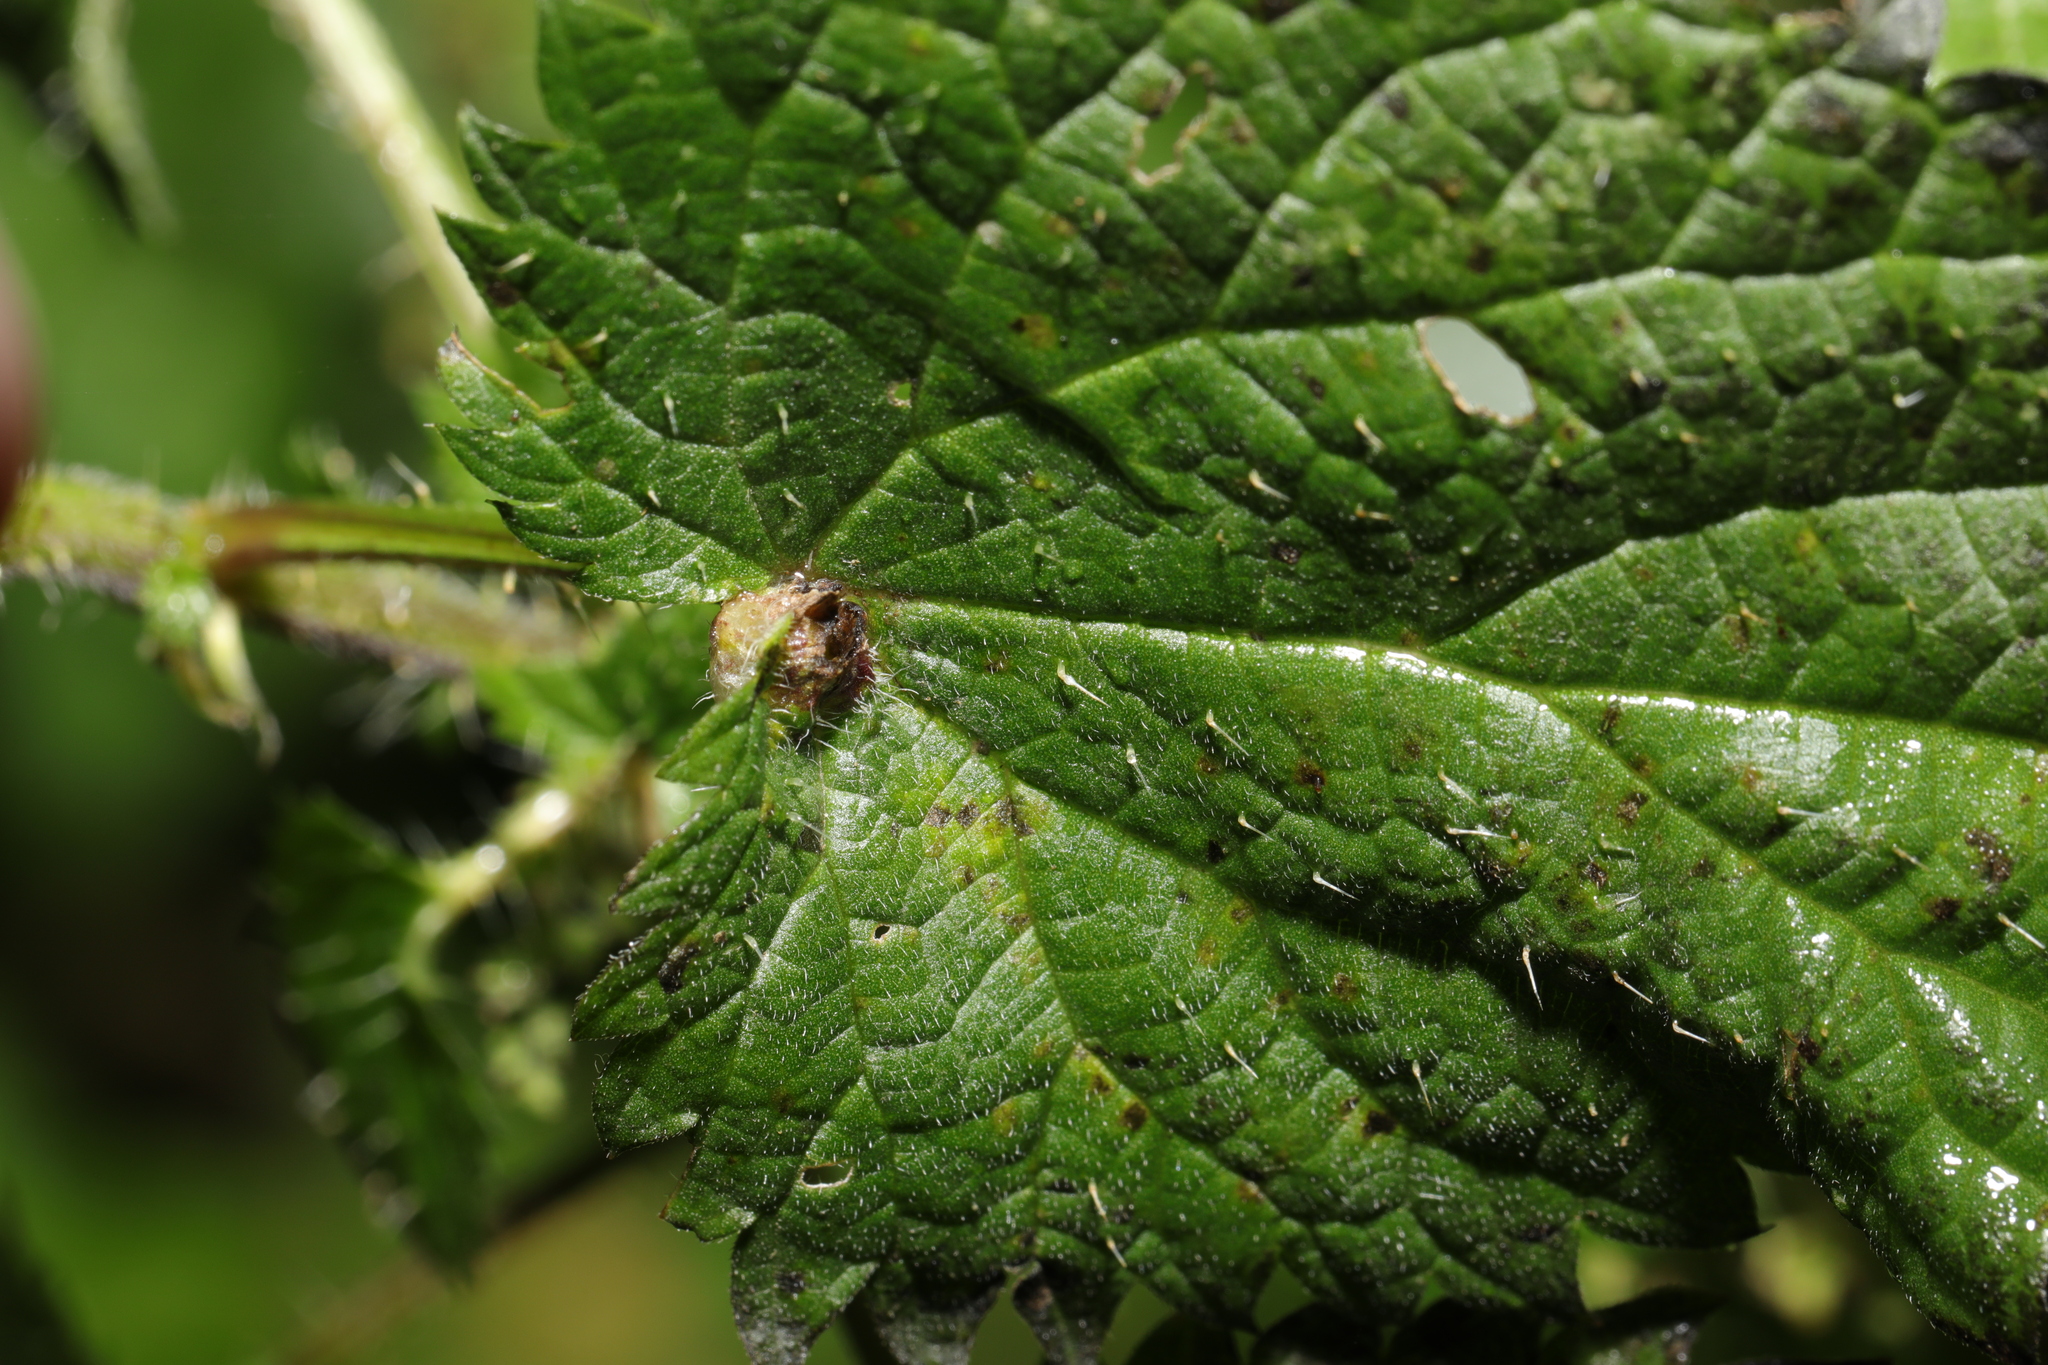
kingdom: Animalia
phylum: Arthropoda
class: Insecta
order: Diptera
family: Cecidomyiidae
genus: Dasineura
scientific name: Dasineura urticae
